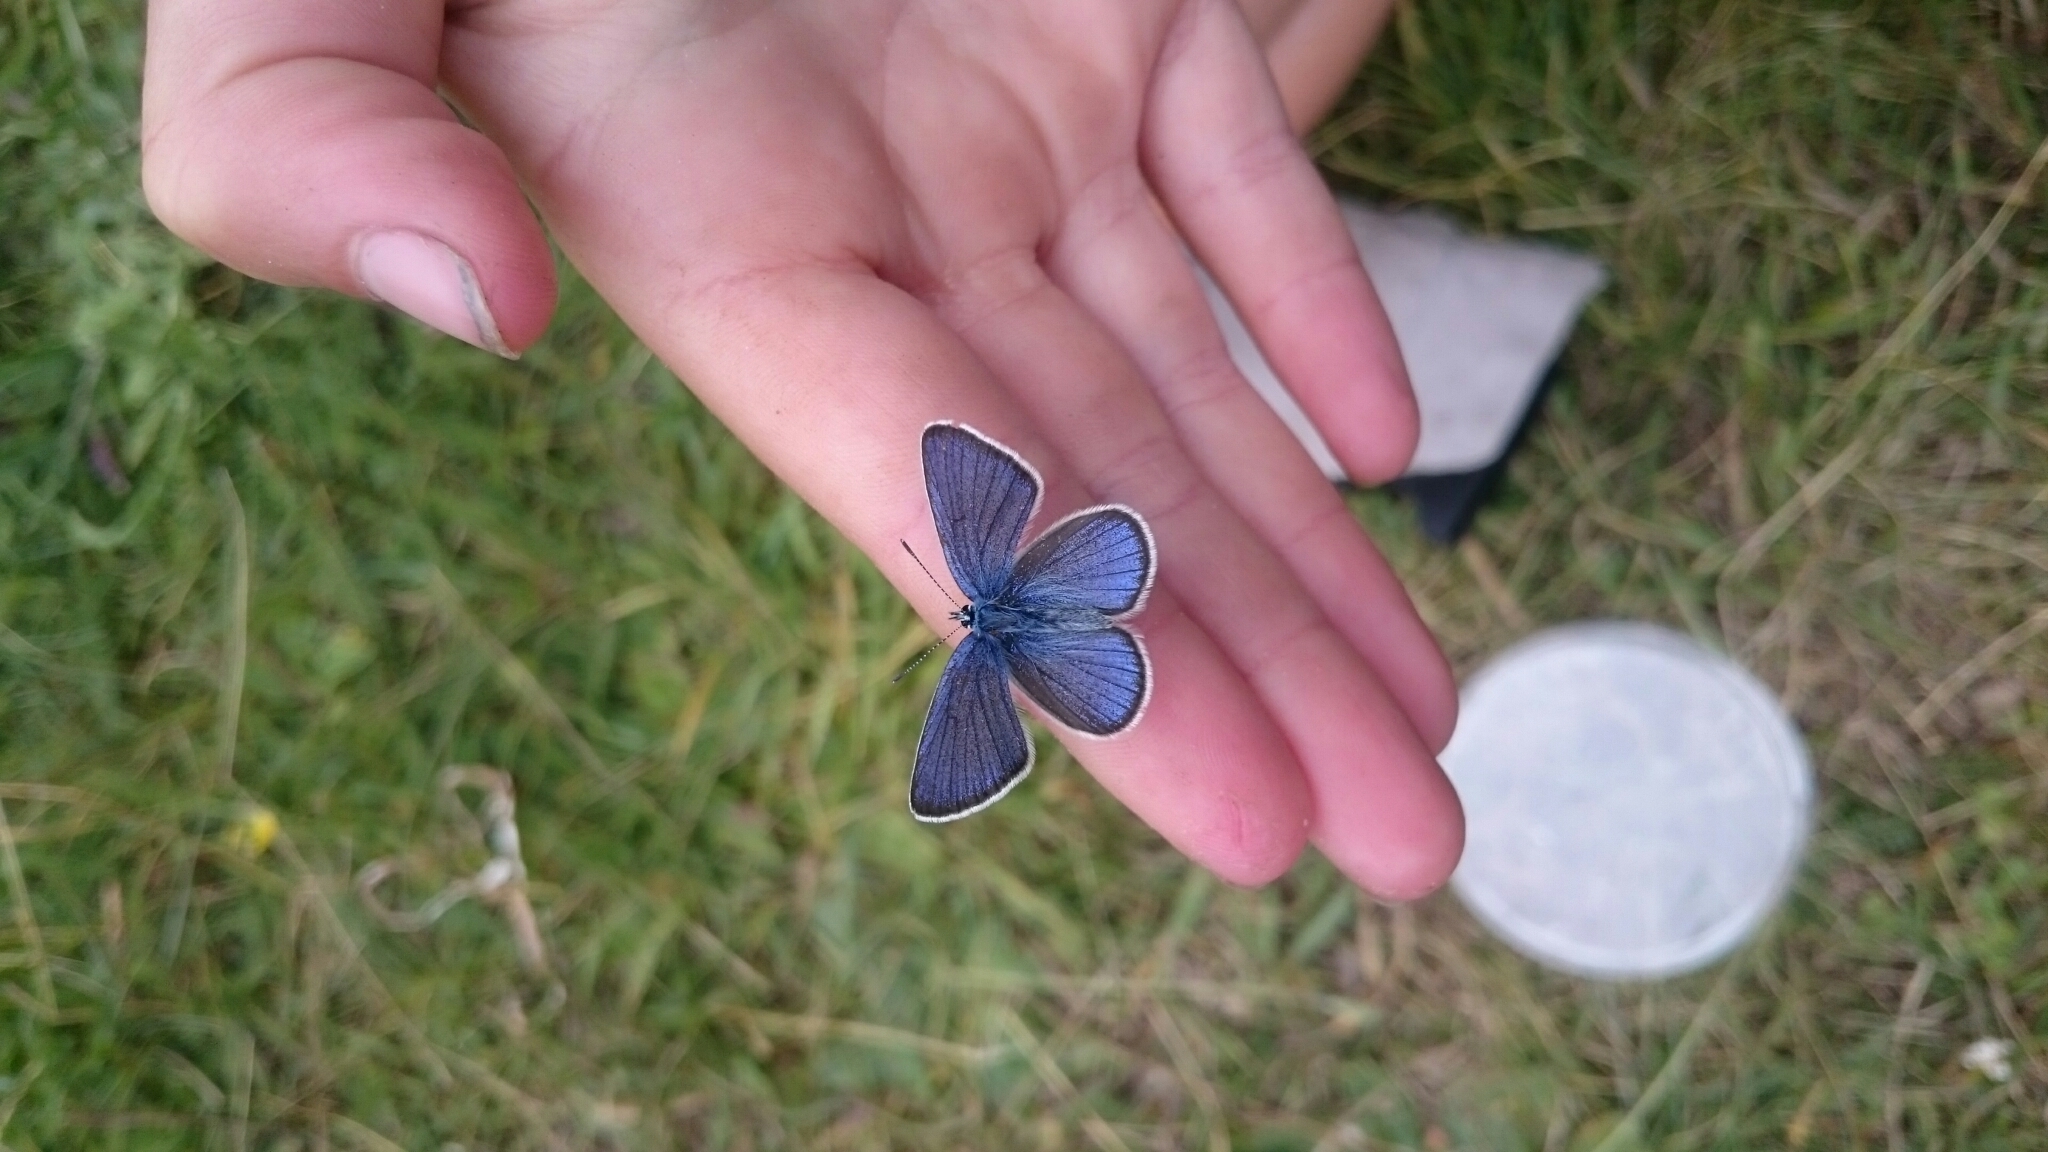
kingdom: Animalia
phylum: Arthropoda
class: Insecta
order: Lepidoptera
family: Lycaenidae
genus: Cyaniris
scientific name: Cyaniris semiargus
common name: Mazarine blue
